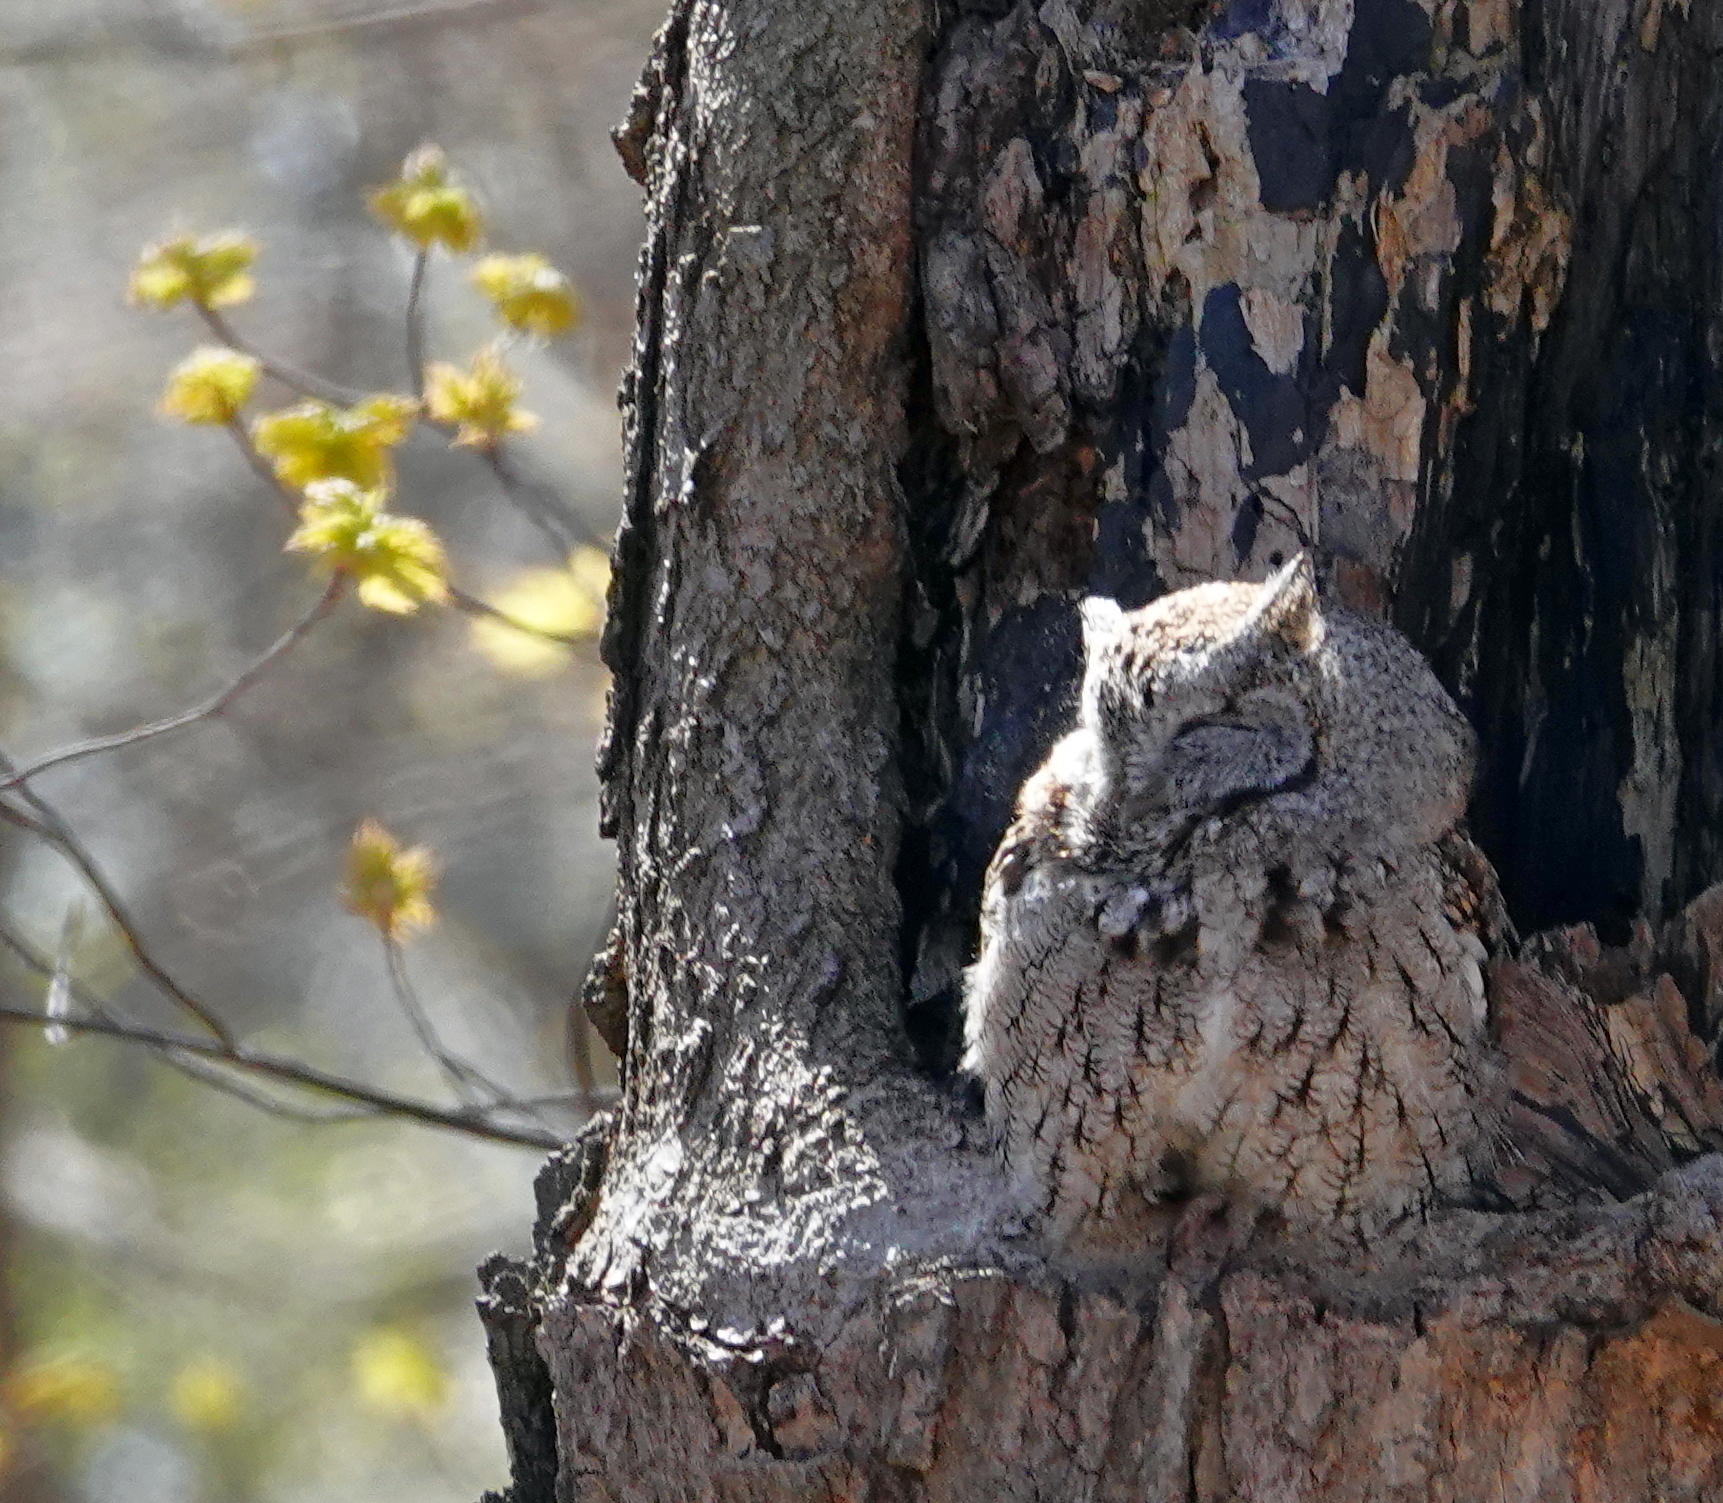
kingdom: Animalia
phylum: Chordata
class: Aves
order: Strigiformes
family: Strigidae
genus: Megascops
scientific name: Megascops asio
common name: Eastern screech-owl
